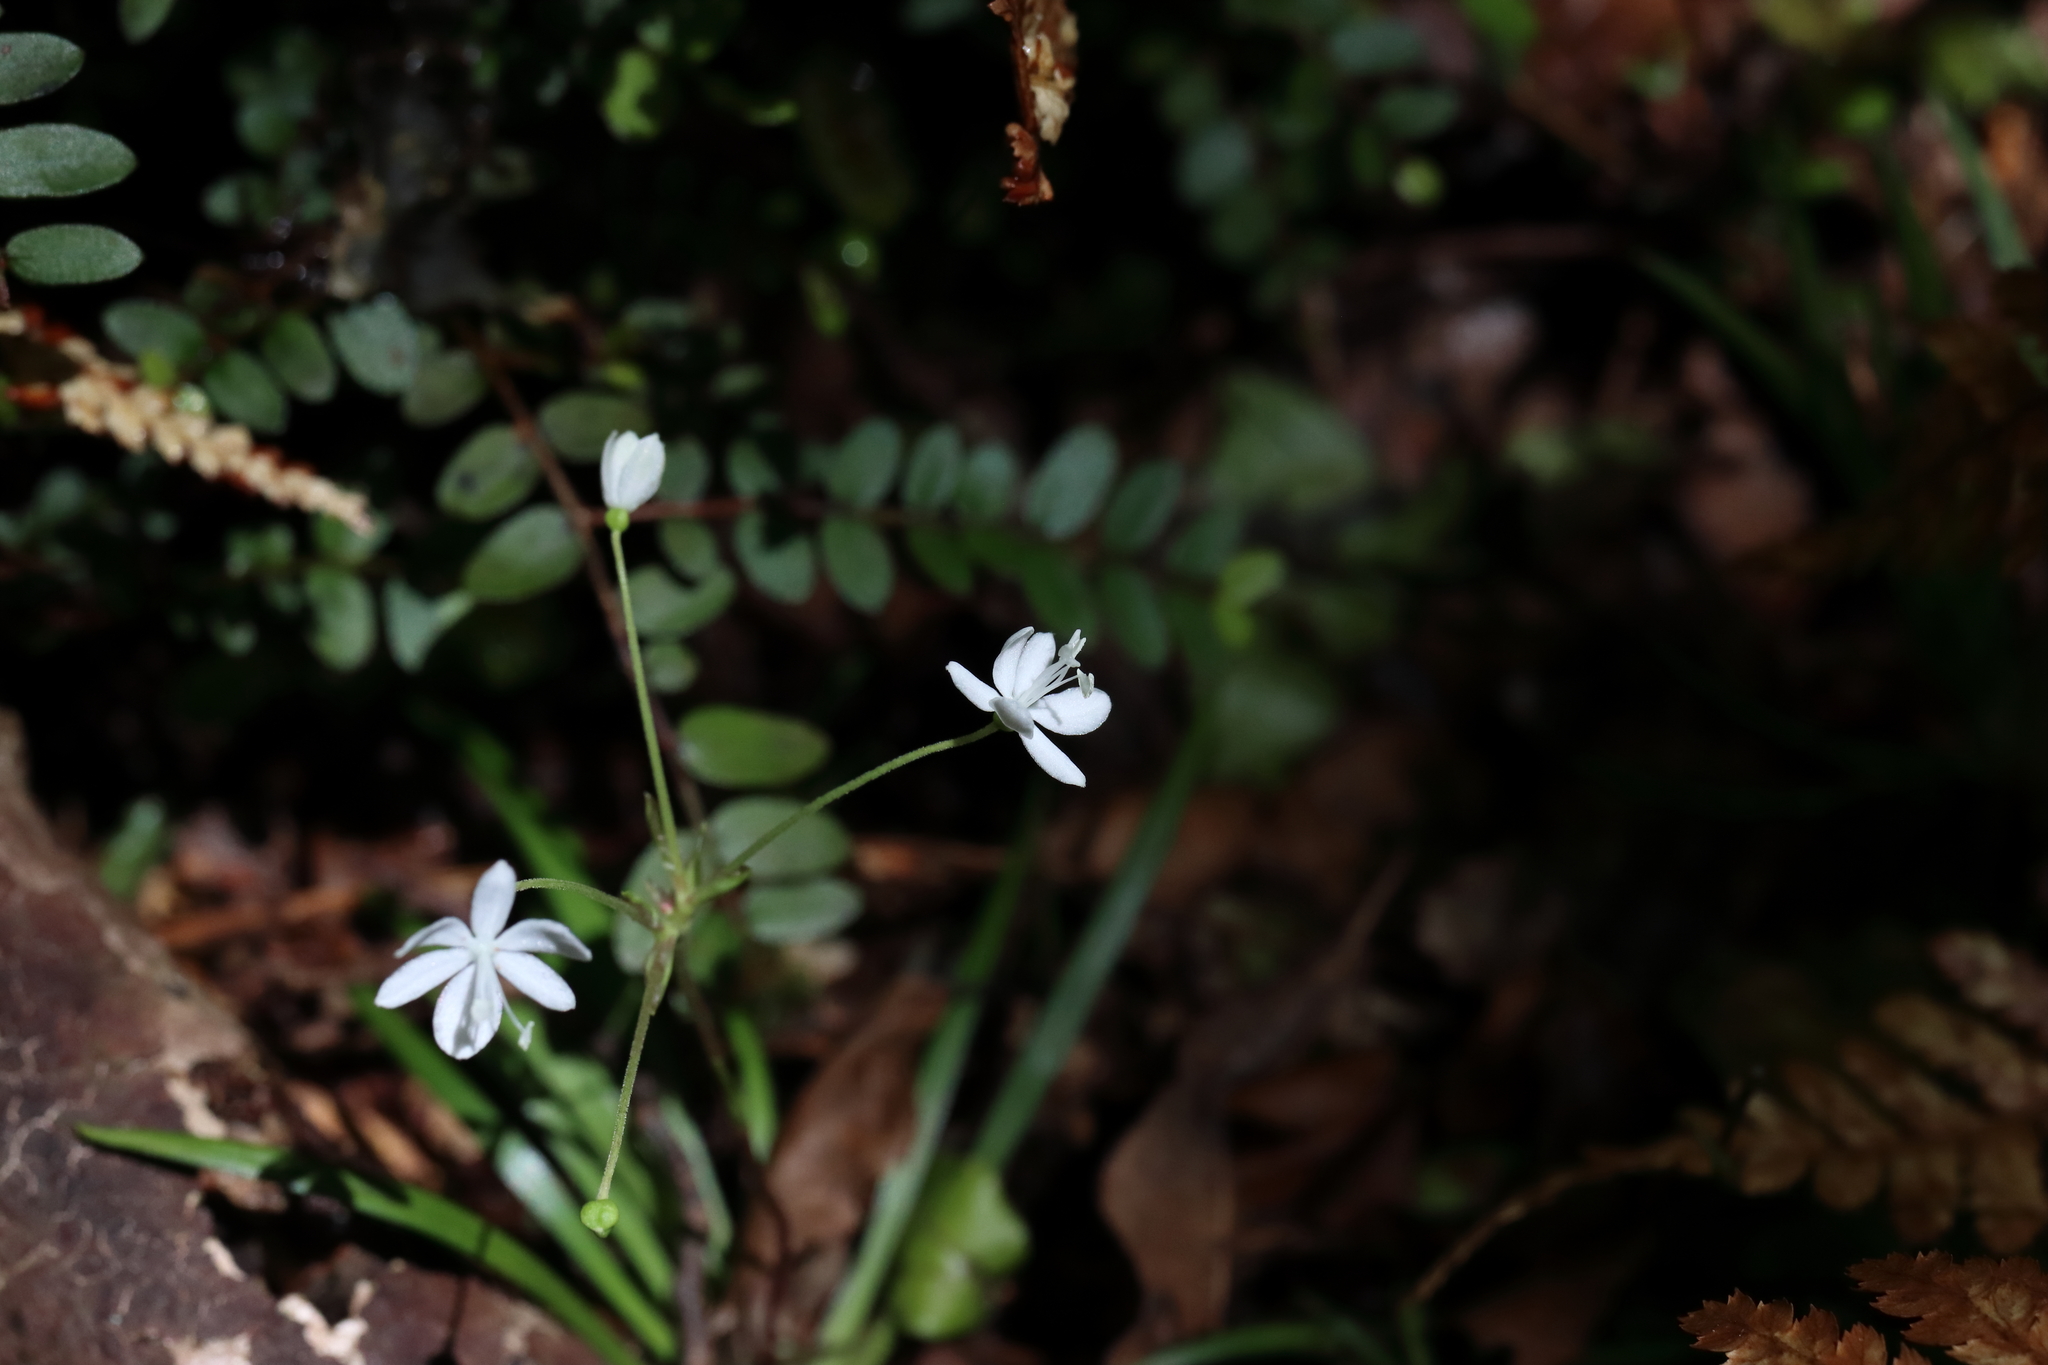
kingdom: Plantae
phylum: Tracheophyta
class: Liliopsida
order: Asparagales
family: Iridaceae
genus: Libertia
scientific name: Libertia micrantha
